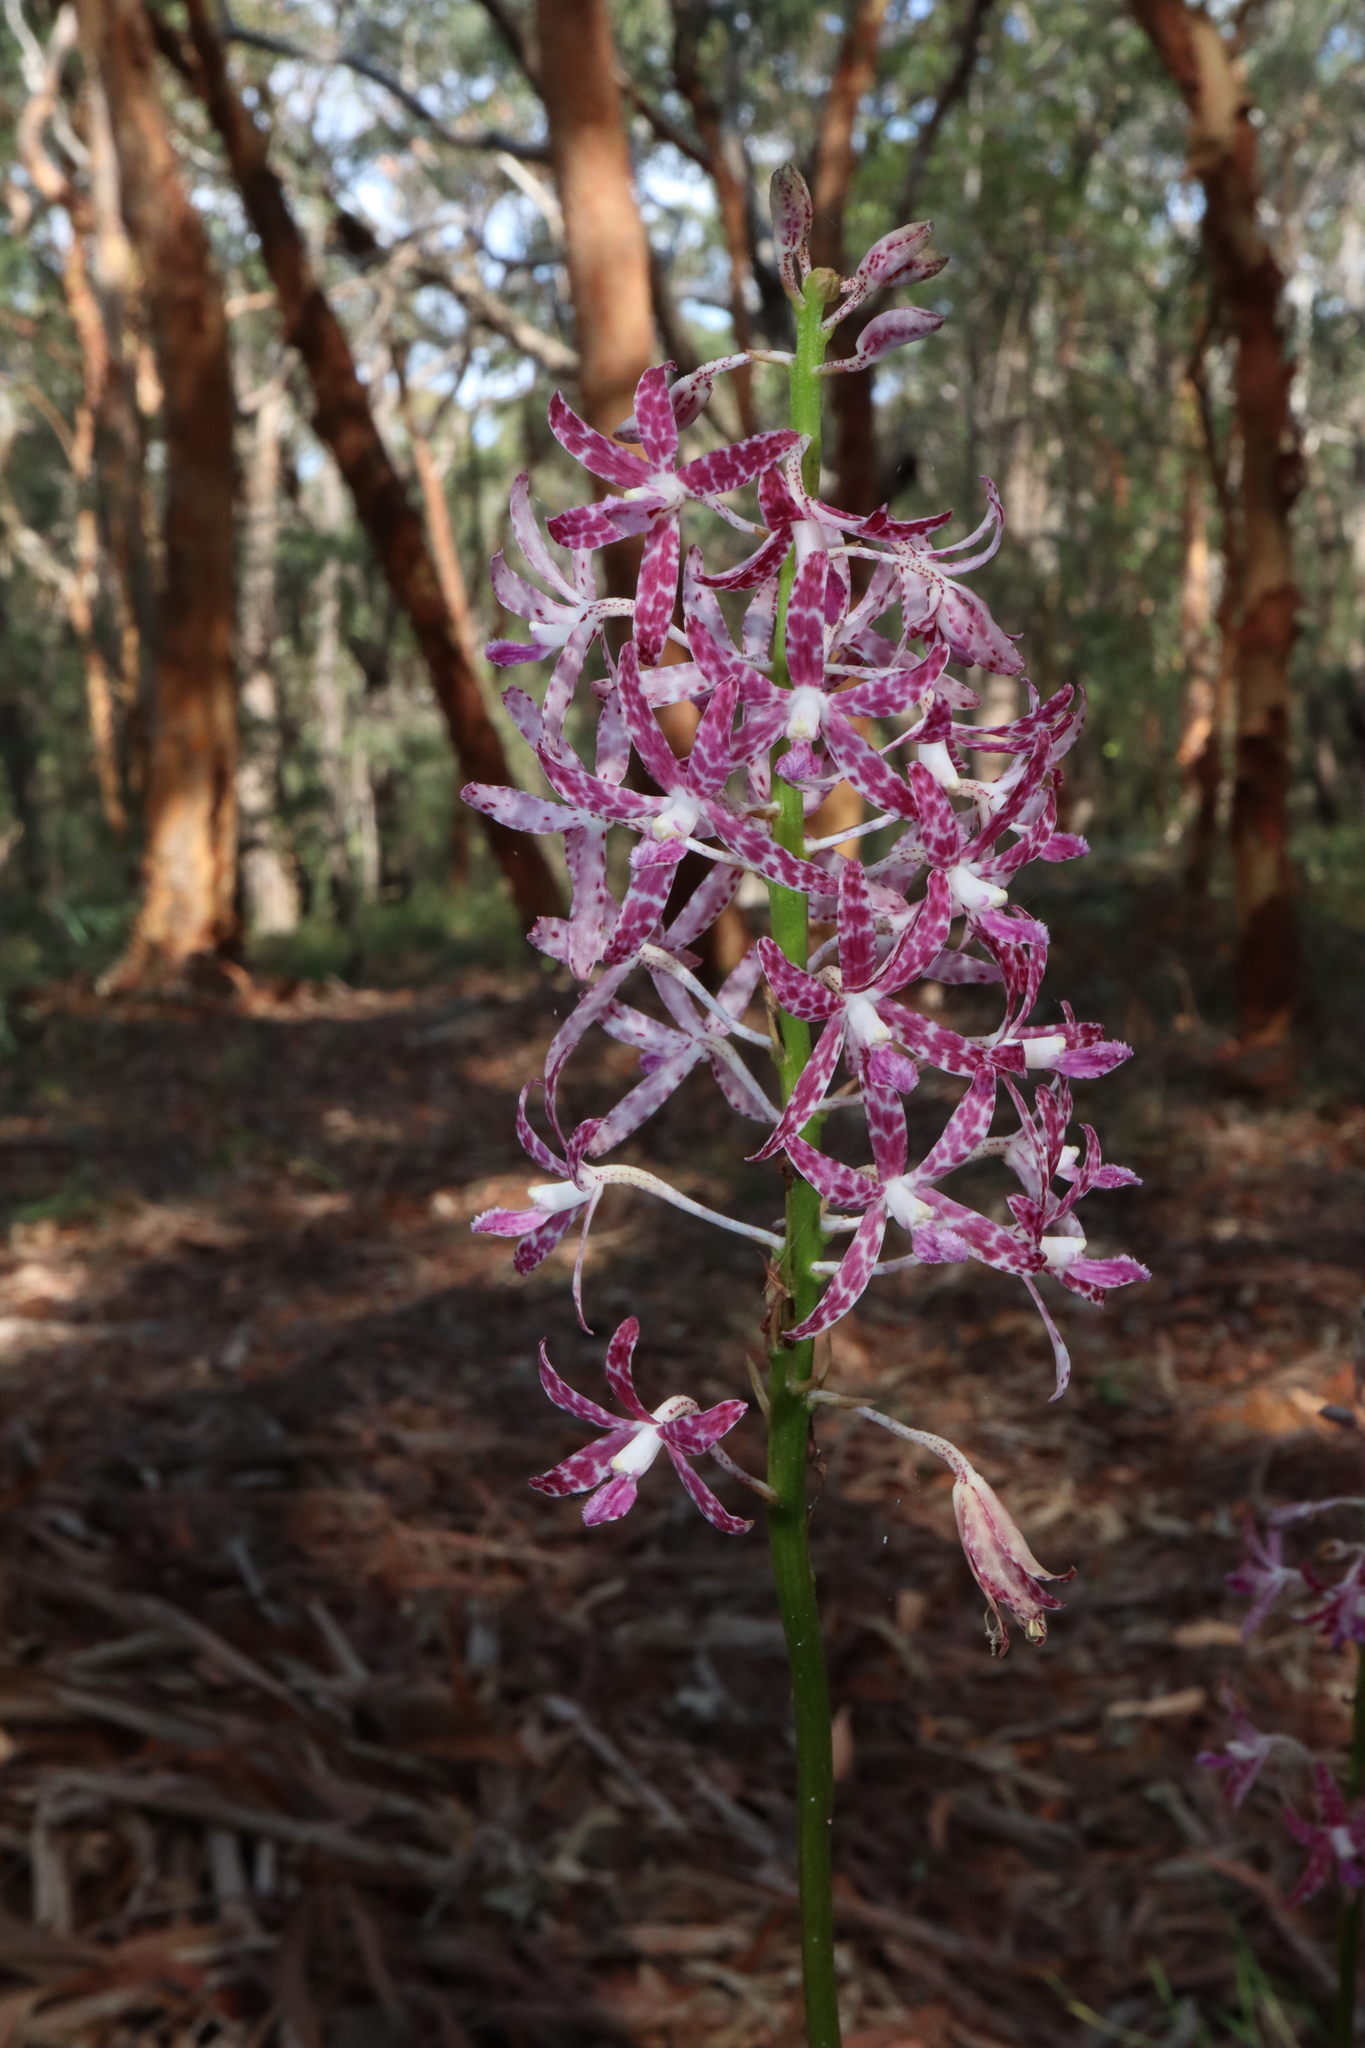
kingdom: Plantae
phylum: Tracheophyta
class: Liliopsida
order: Asparagales
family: Orchidaceae
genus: Dipodium
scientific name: Dipodium variegatum
